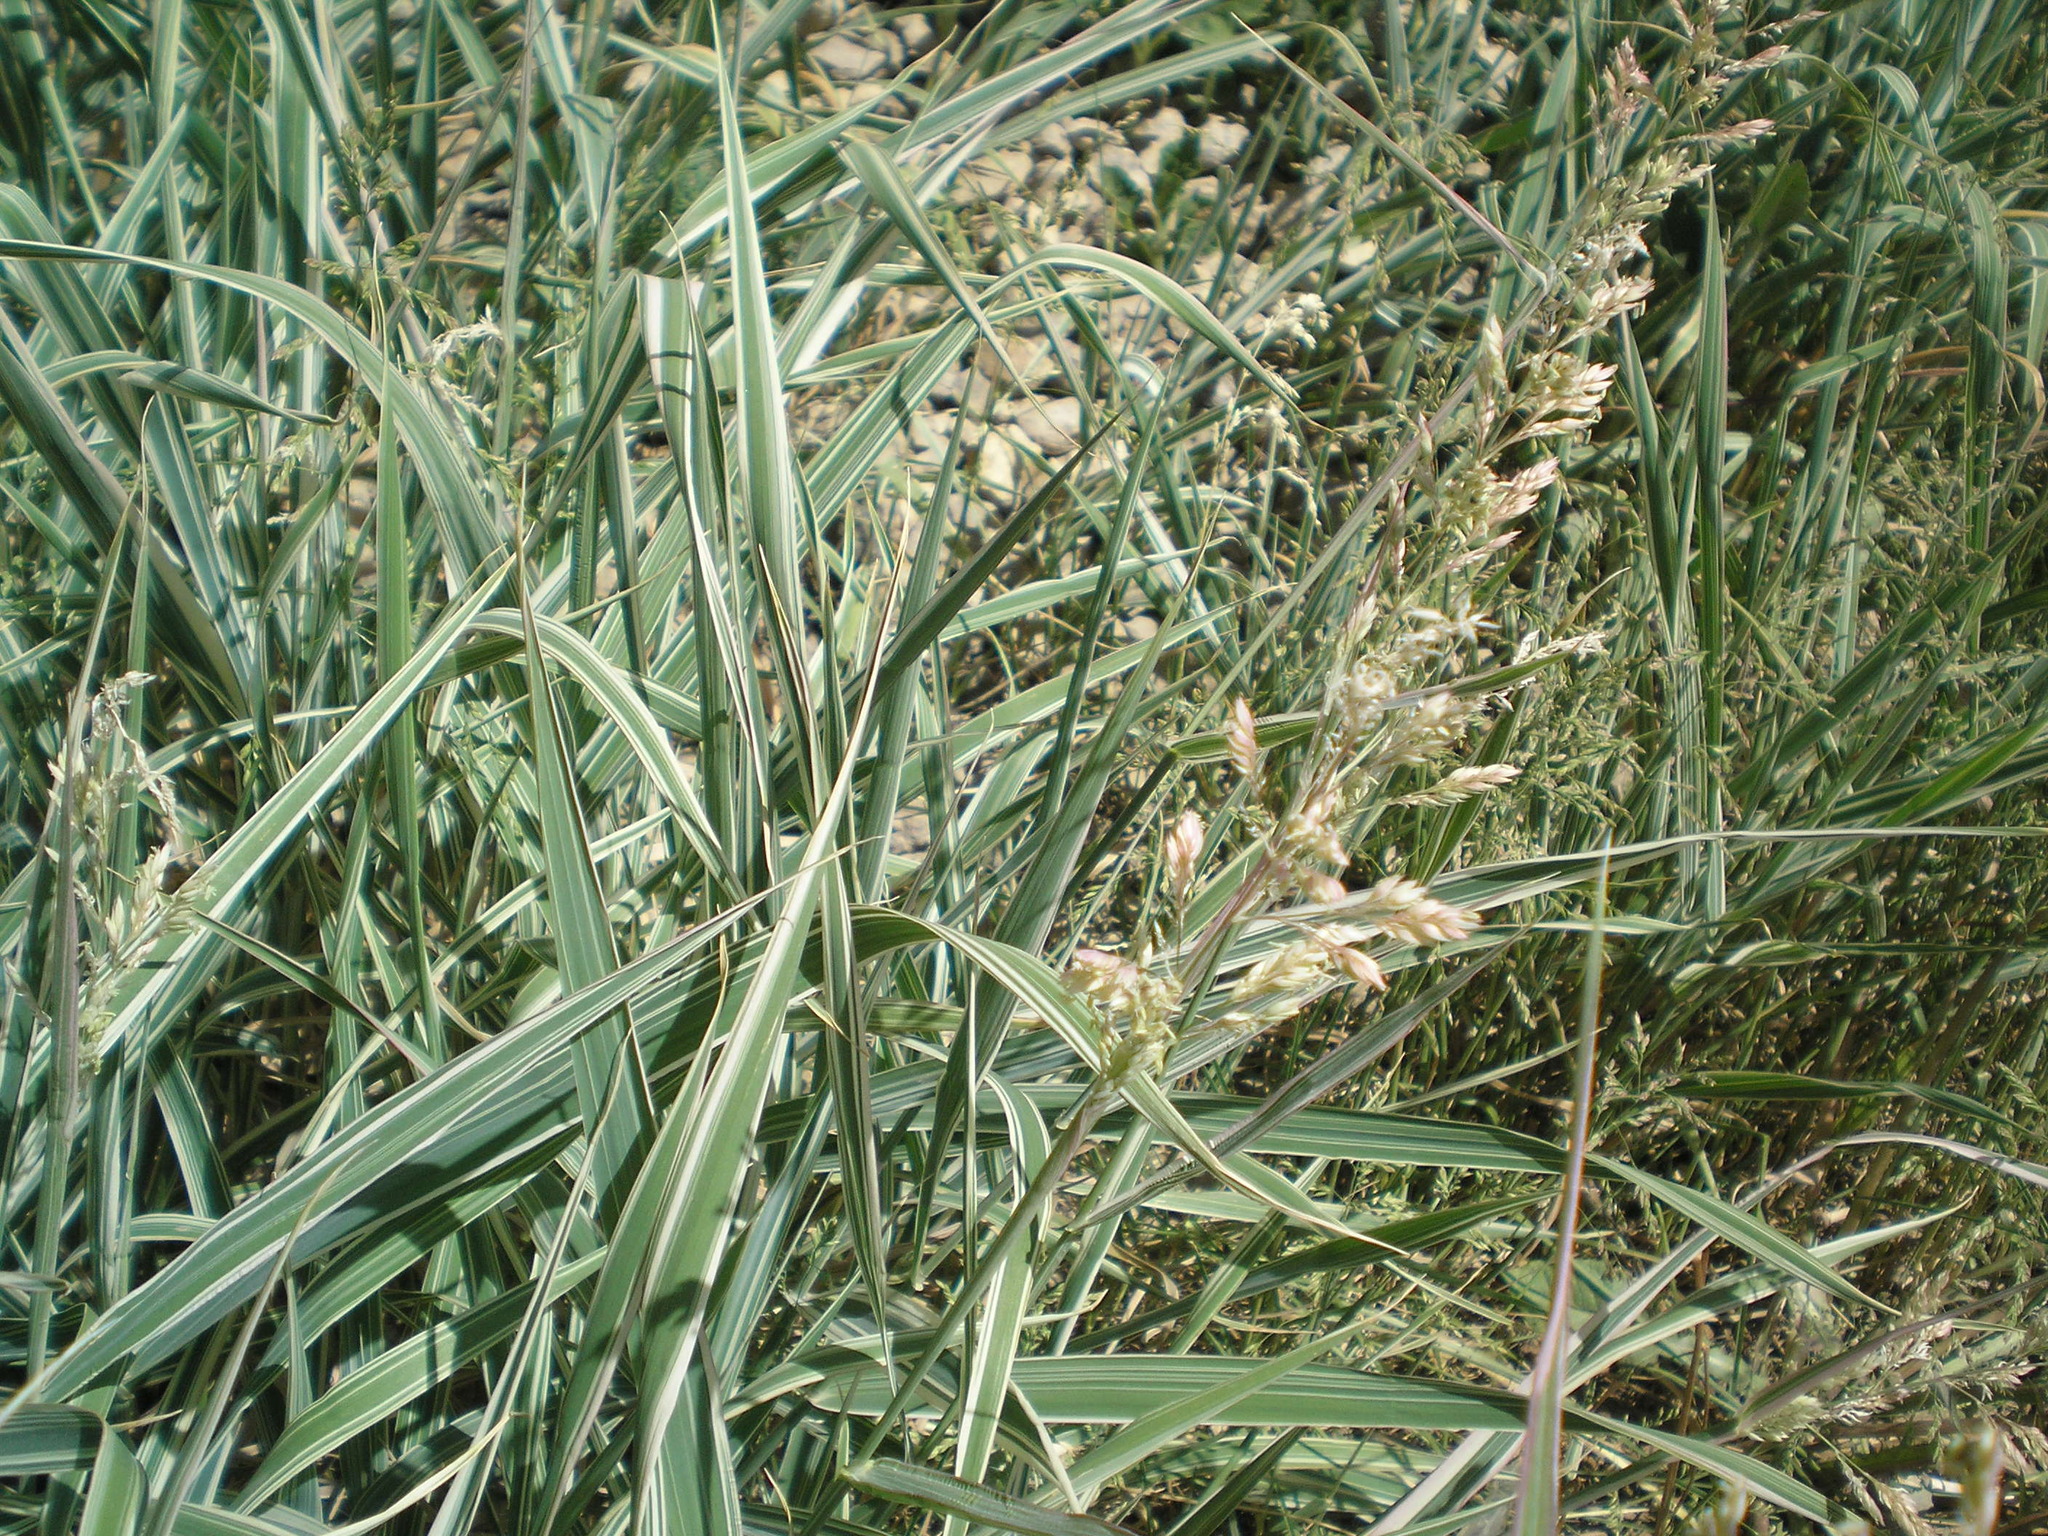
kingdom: Plantae
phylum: Tracheophyta
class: Liliopsida
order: Poales
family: Poaceae
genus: Phalaris
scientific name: Phalaris arundinacea
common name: Reed canary-grass
